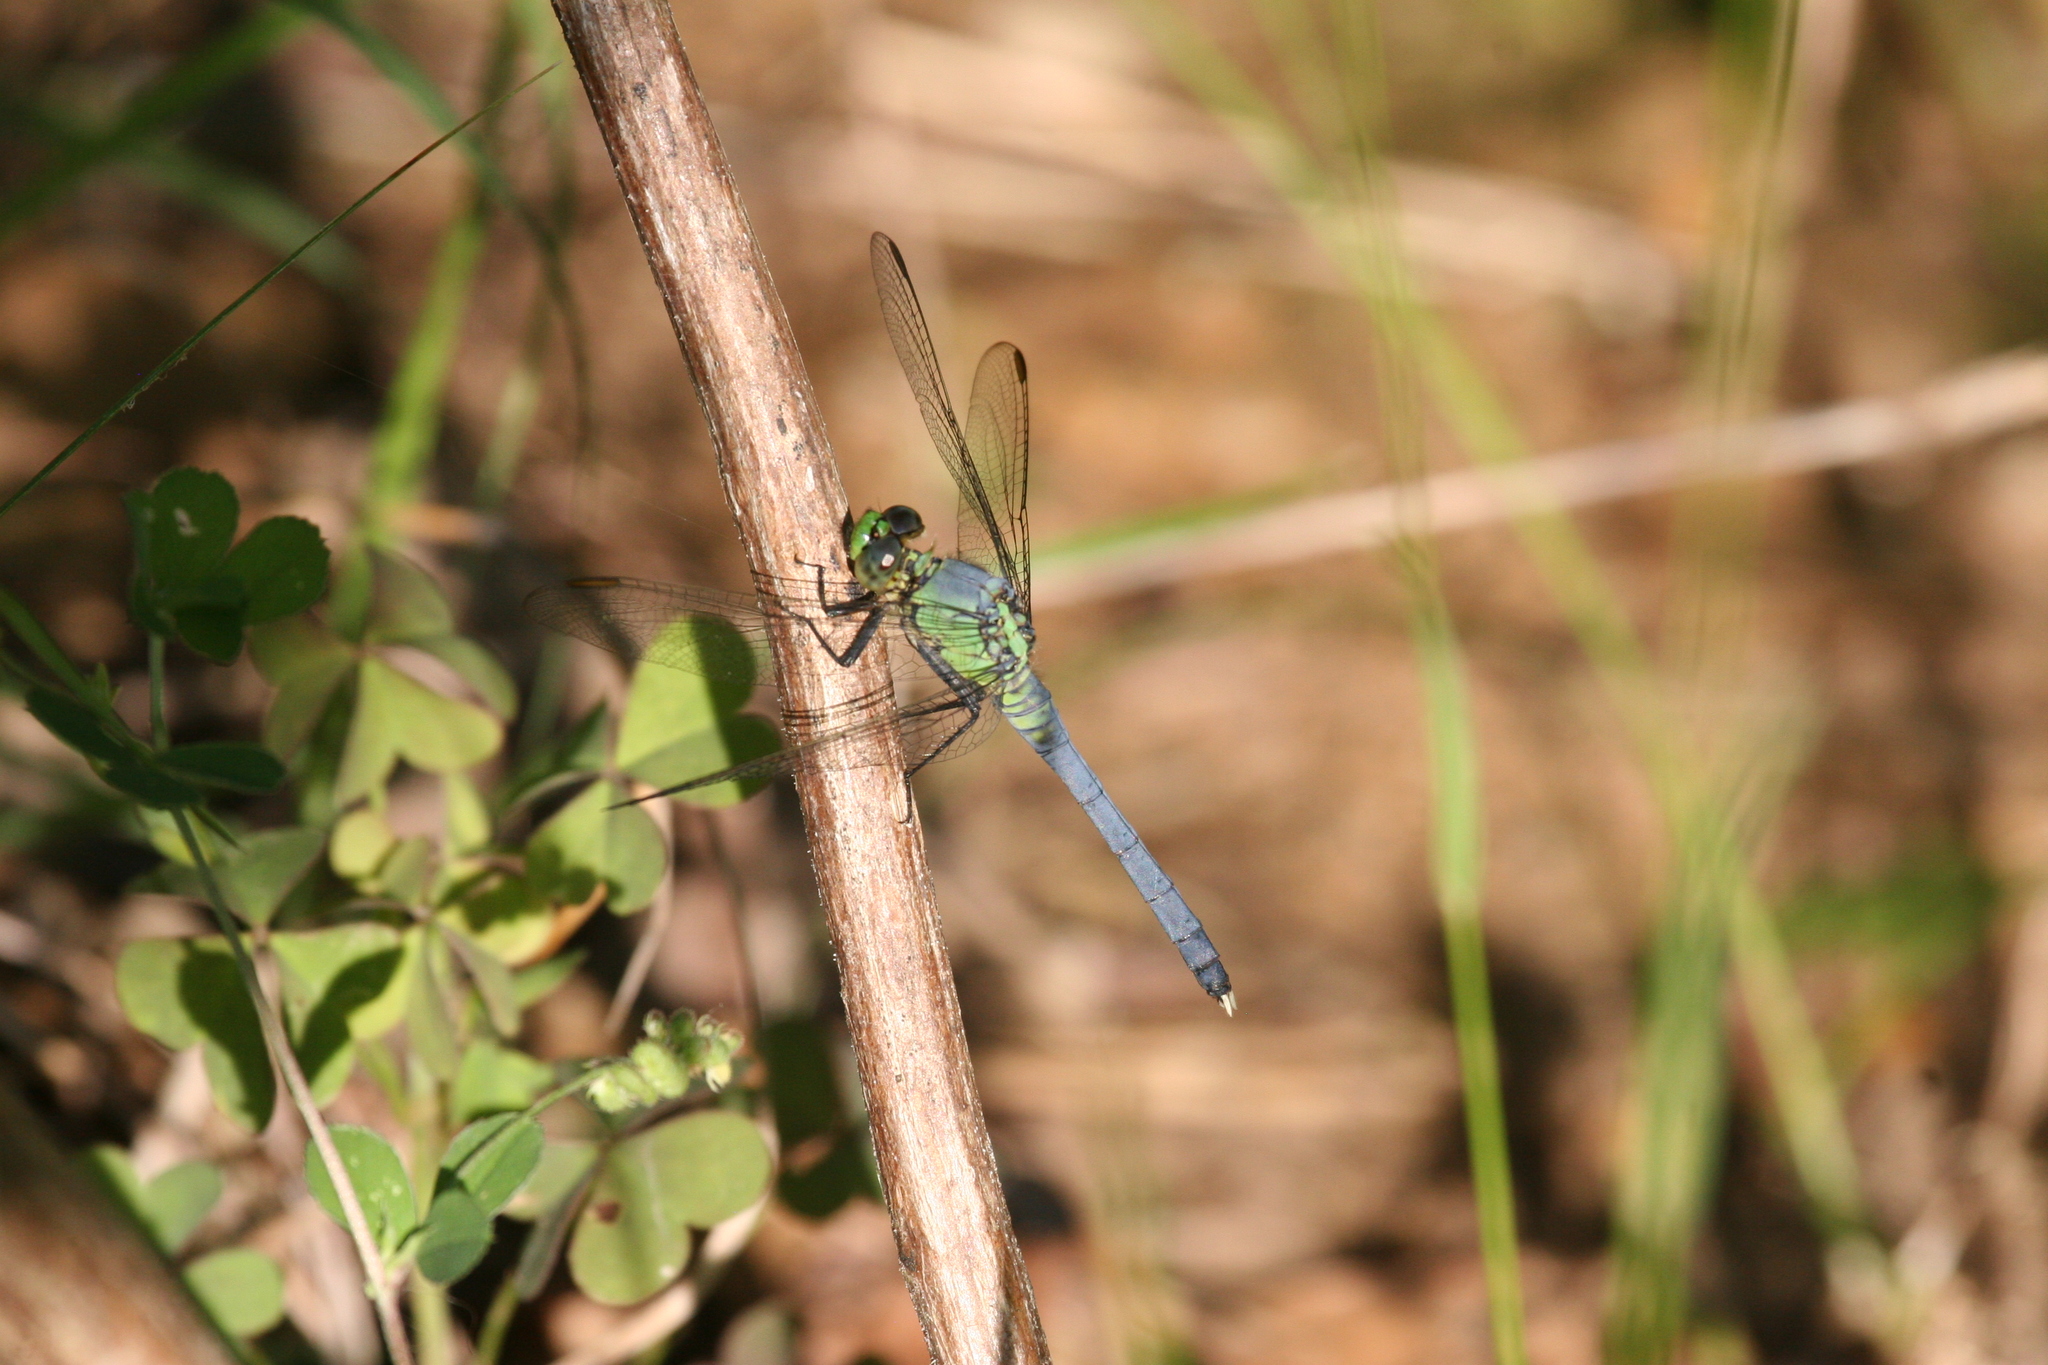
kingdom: Animalia
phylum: Arthropoda
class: Insecta
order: Odonata
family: Libellulidae
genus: Erythemis
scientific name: Erythemis simplicicollis
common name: Eastern pondhawk
